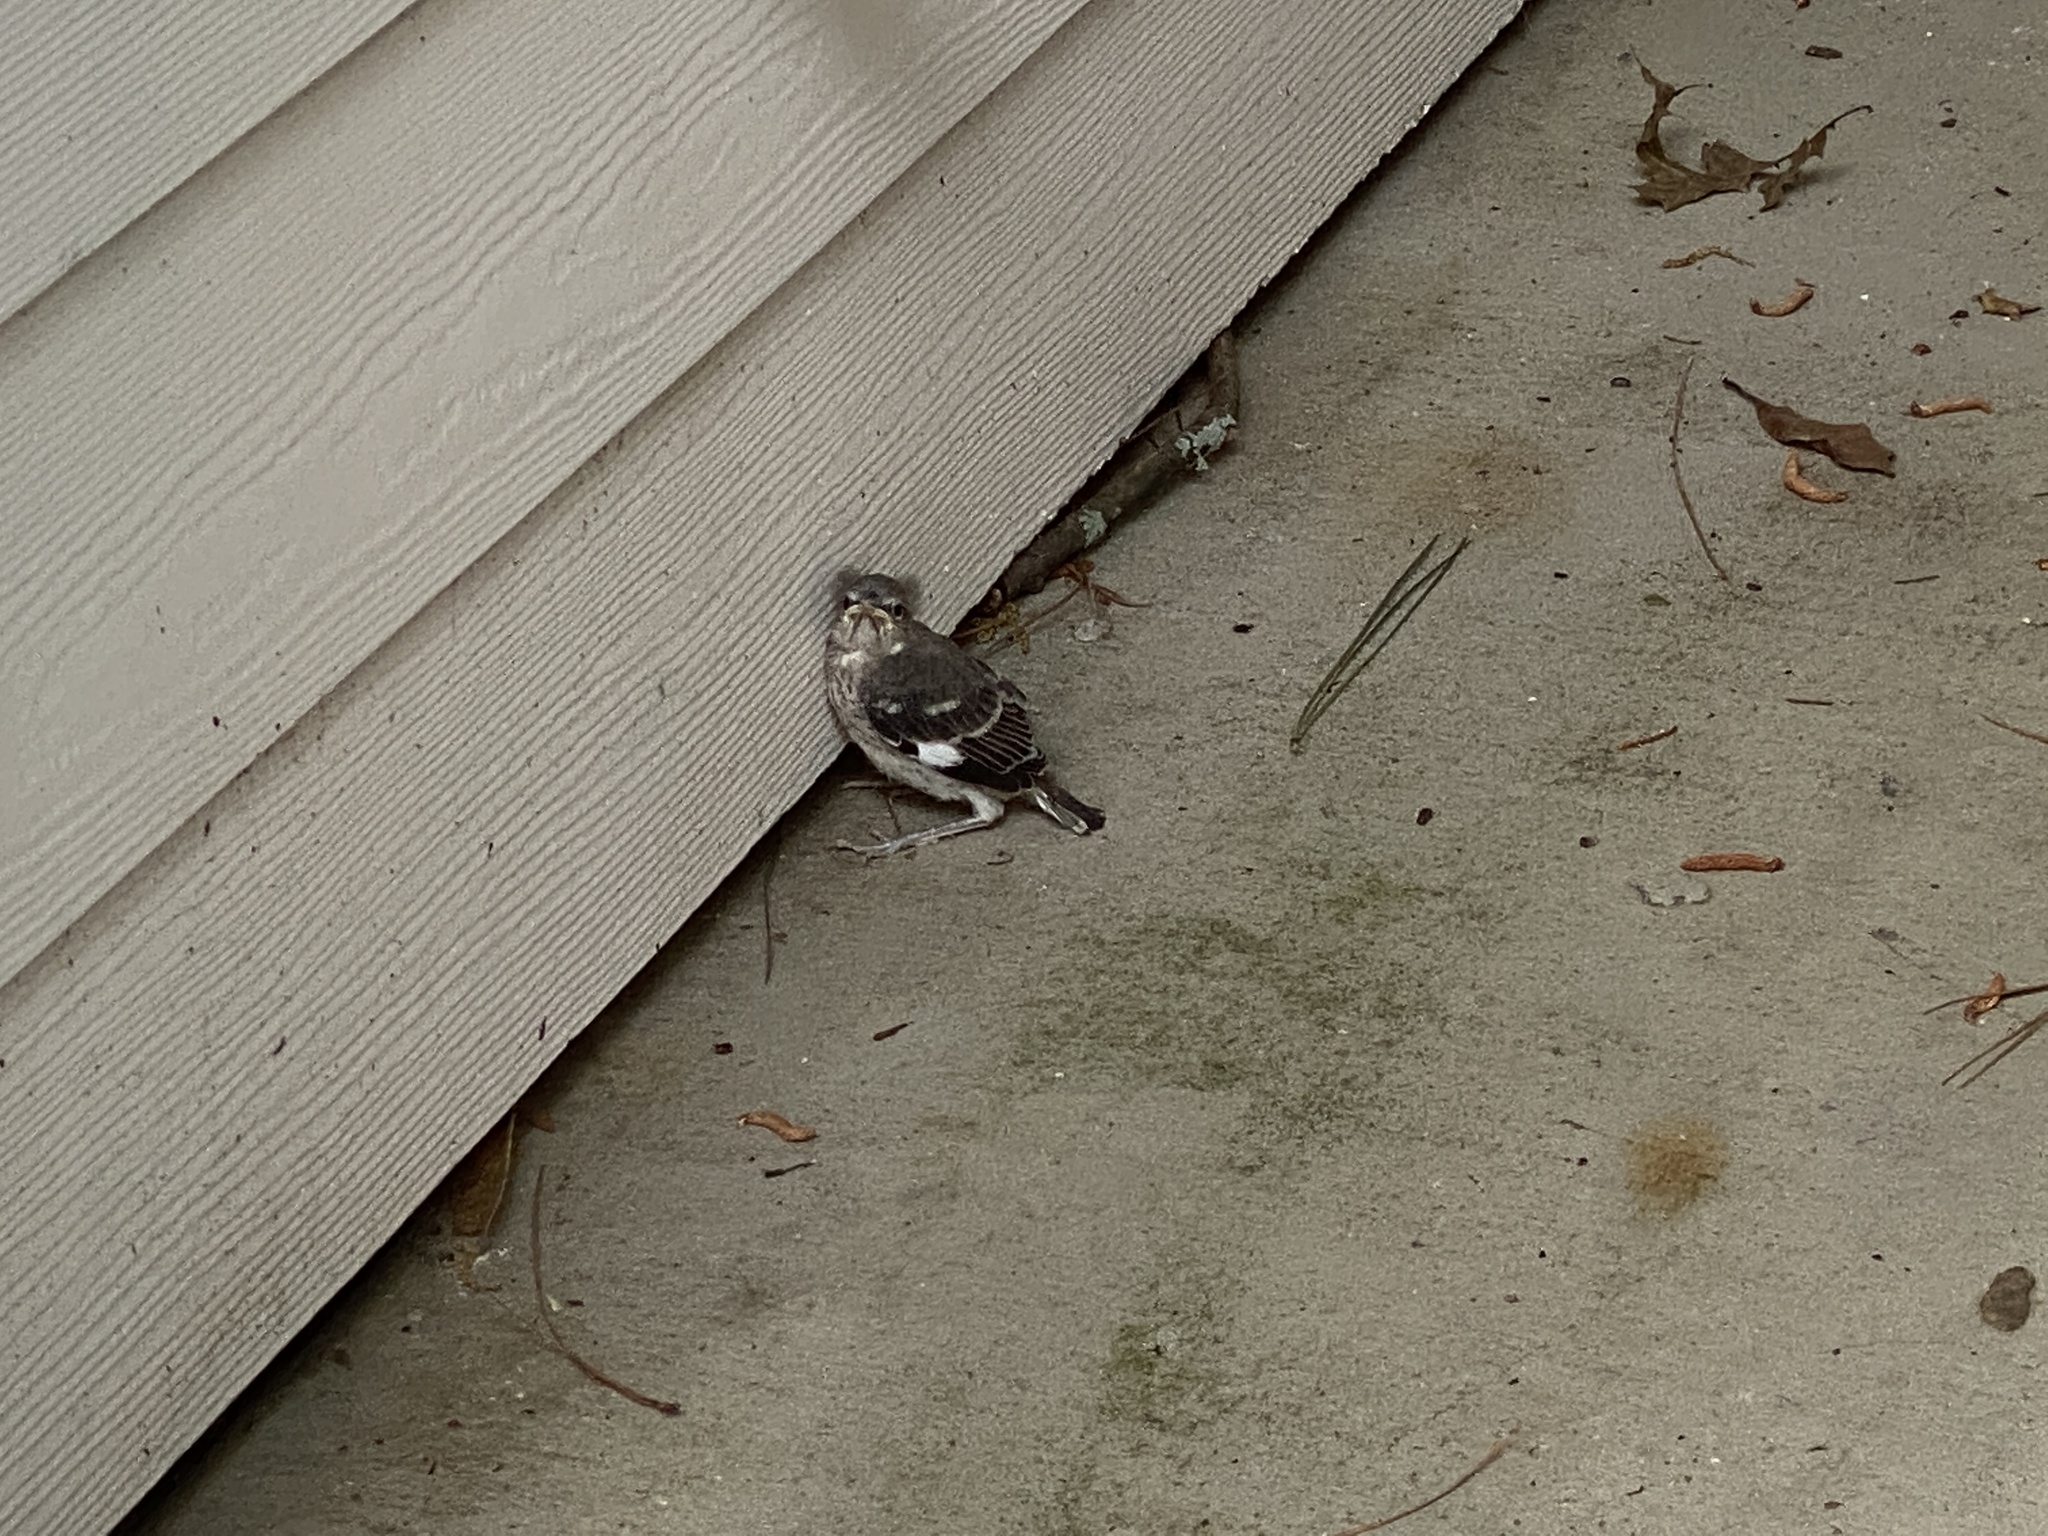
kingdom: Animalia
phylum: Chordata
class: Aves
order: Passeriformes
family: Mimidae
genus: Mimus
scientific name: Mimus polyglottos
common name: Northern mockingbird
